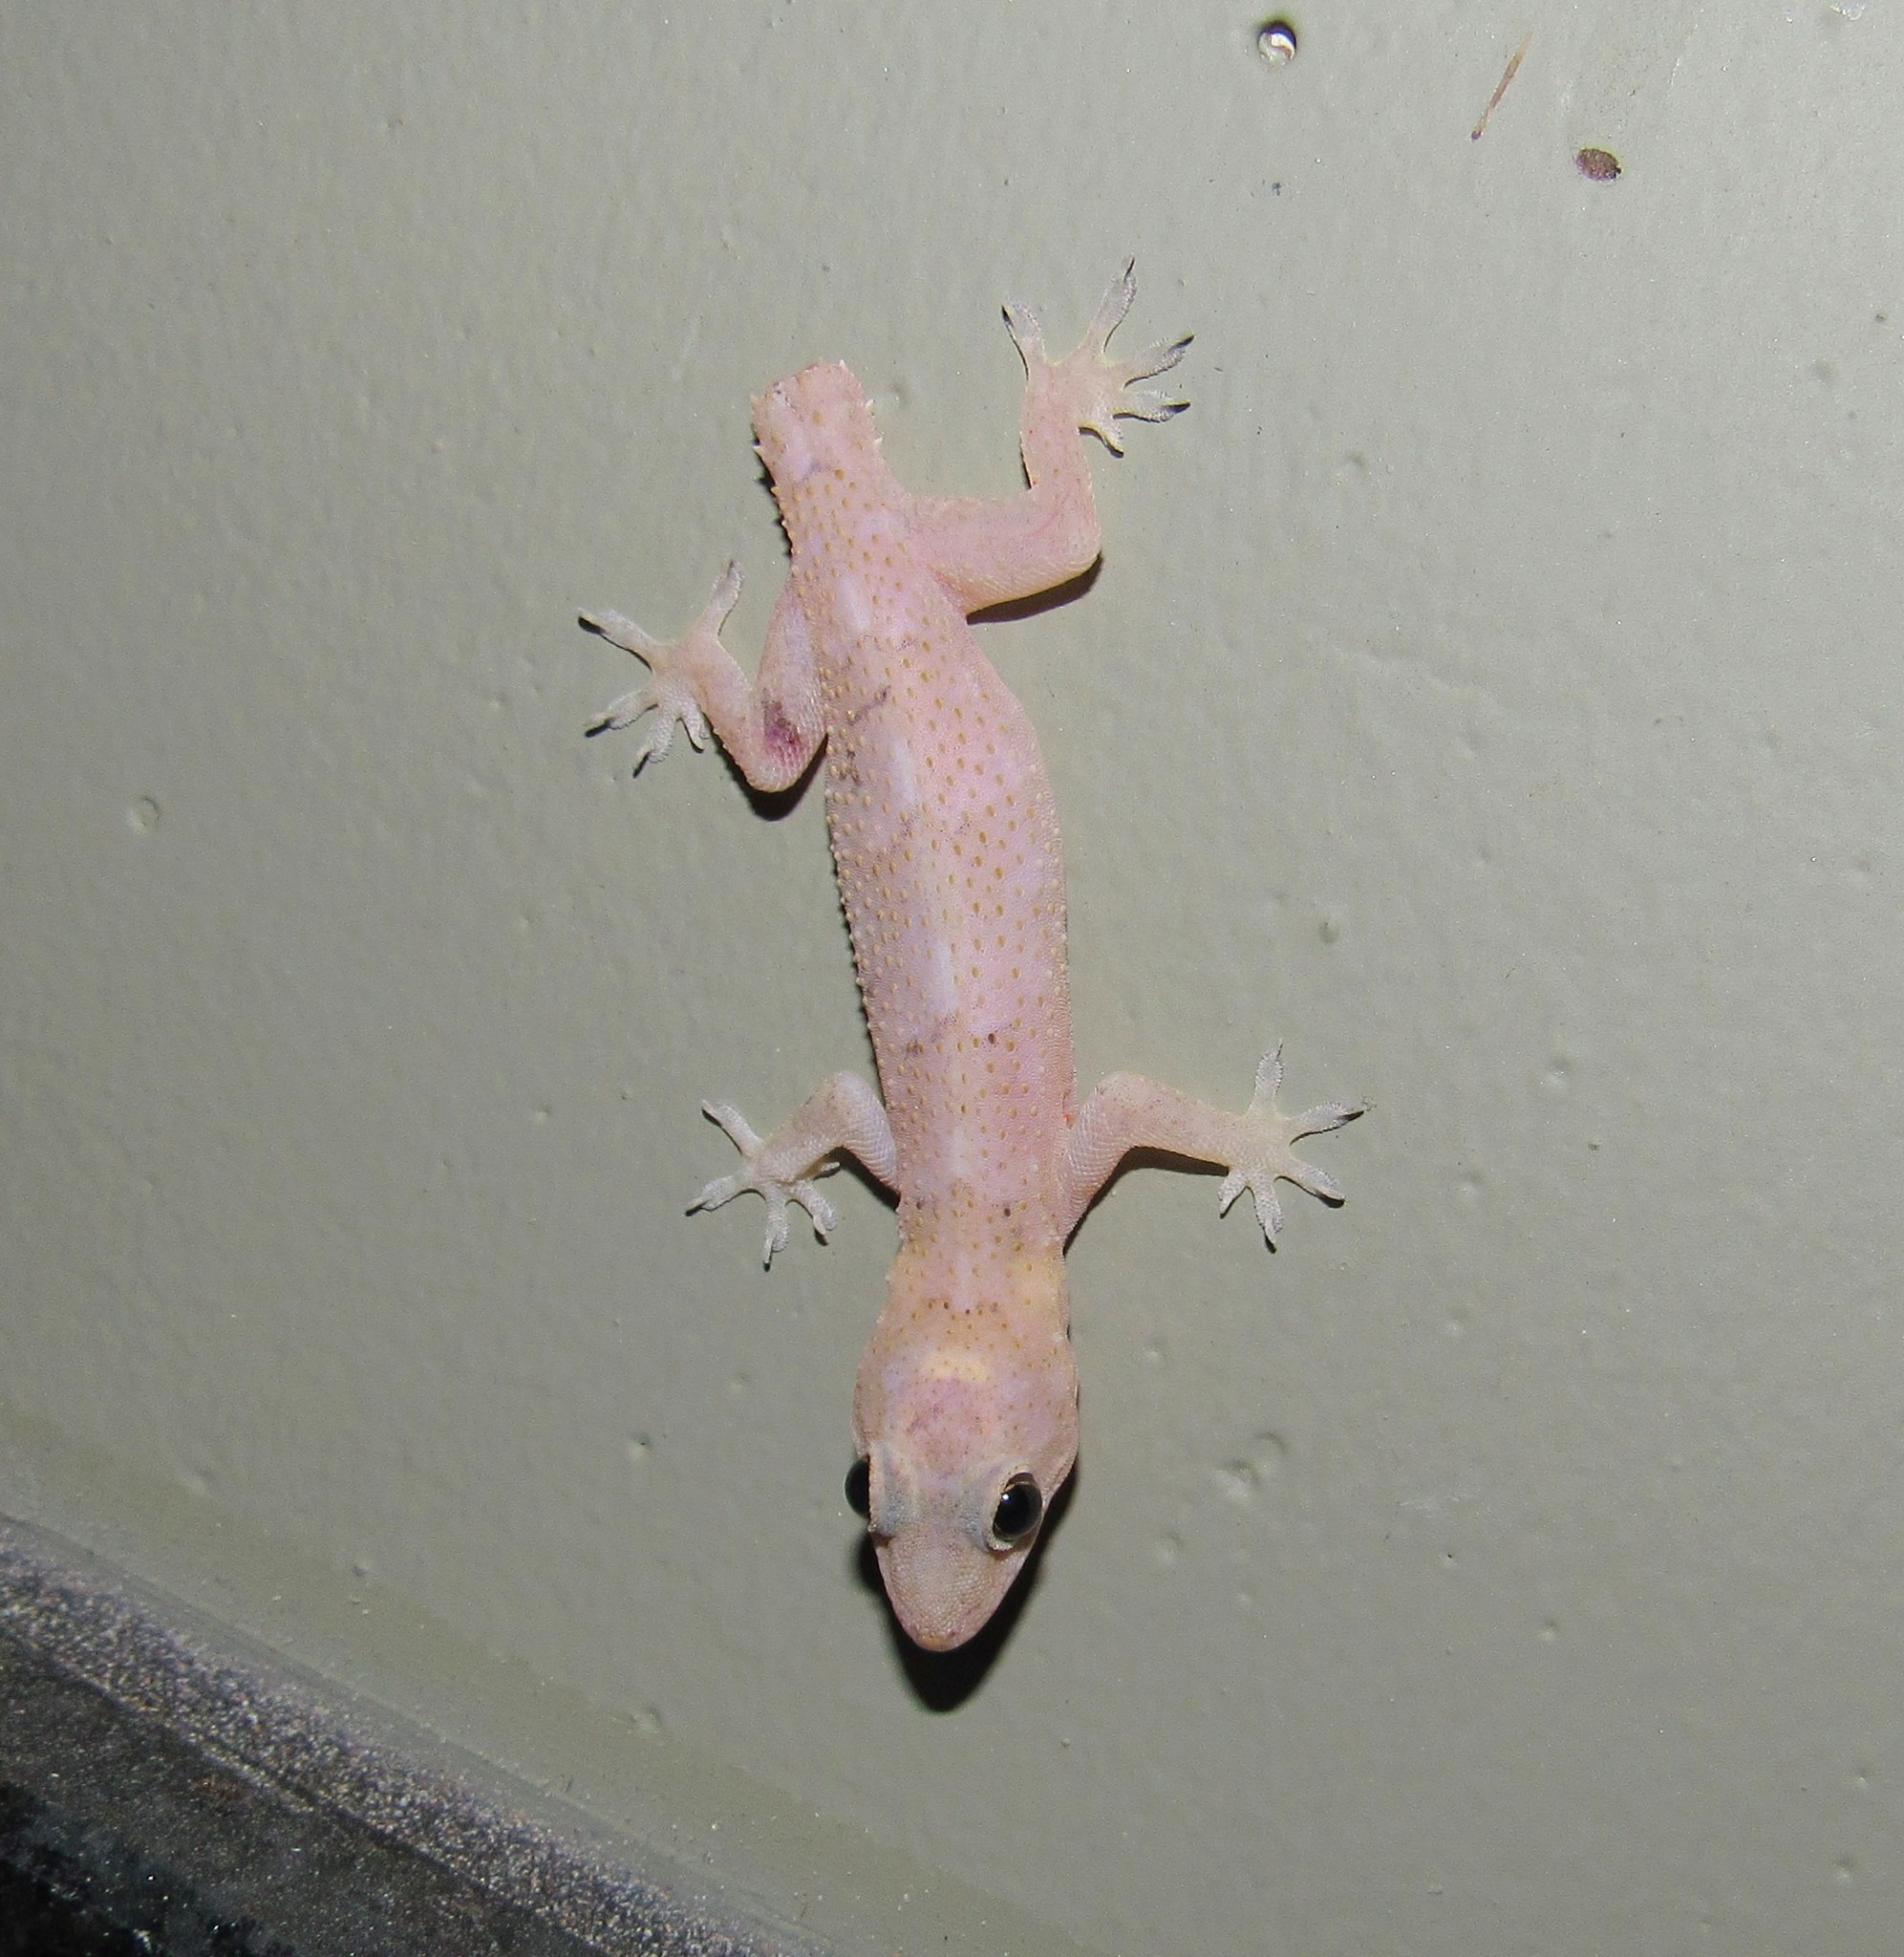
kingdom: Animalia
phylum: Chordata
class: Squamata
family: Gekkonidae
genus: Hemidactylus
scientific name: Hemidactylus mabouia
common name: House gecko
